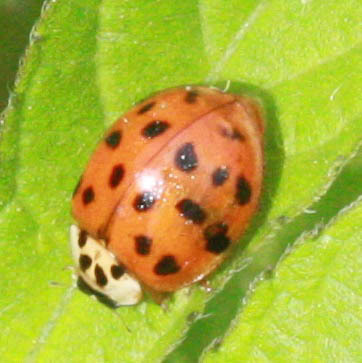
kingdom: Animalia
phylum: Arthropoda
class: Insecta
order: Coleoptera
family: Coccinellidae
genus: Harmonia
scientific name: Harmonia axyridis
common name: Harlequin ladybird
